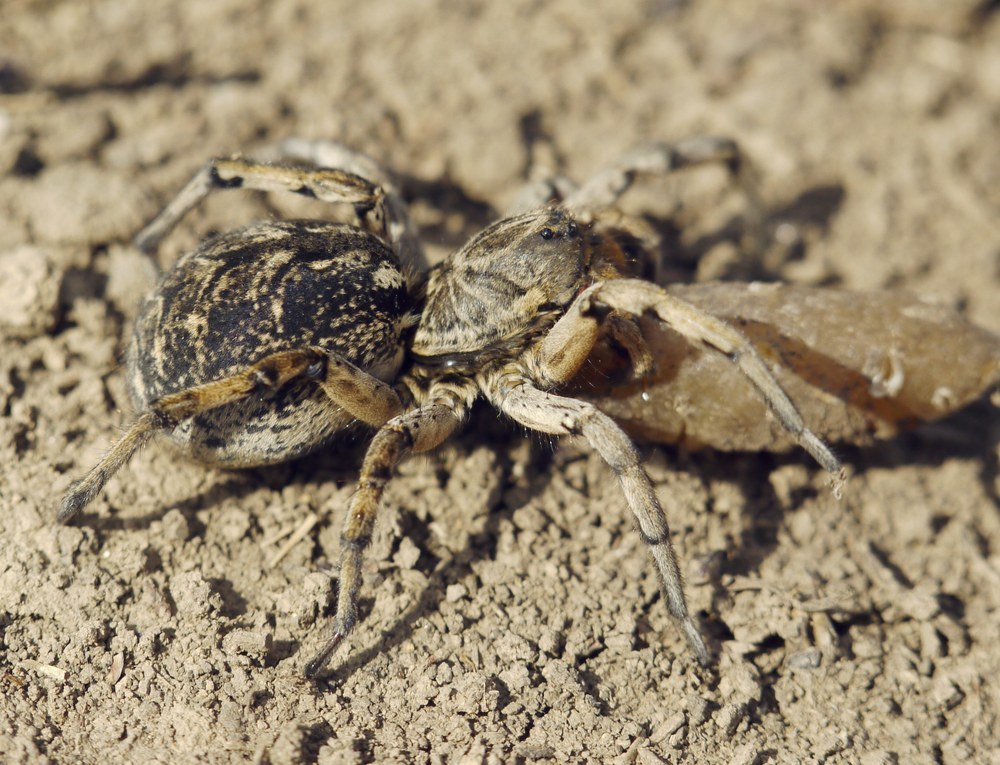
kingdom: Animalia
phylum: Arthropoda
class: Arachnida
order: Araneae
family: Lycosidae
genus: Geolycosa
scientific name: Geolycosa vultuosa
